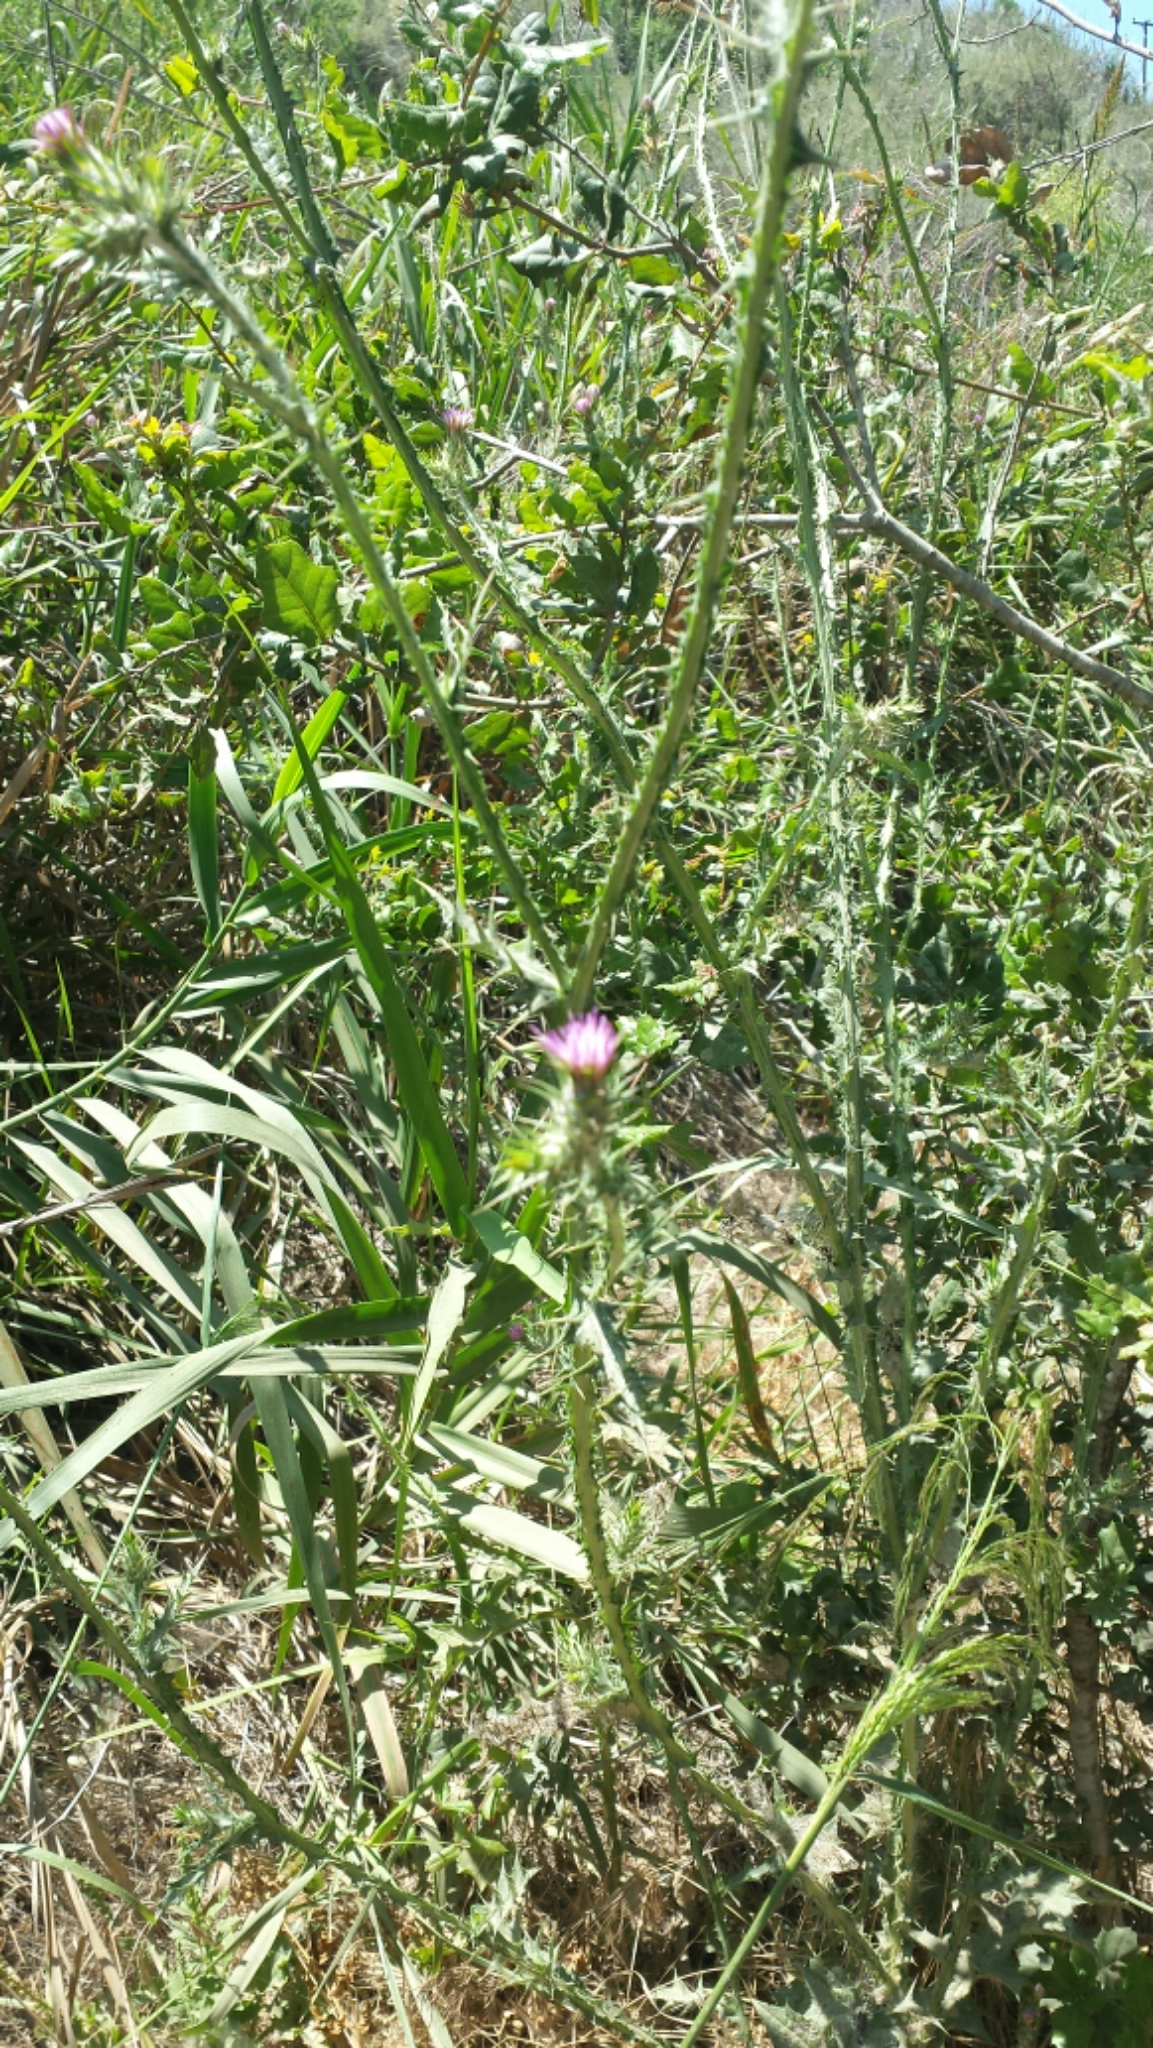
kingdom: Plantae
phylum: Tracheophyta
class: Magnoliopsida
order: Asterales
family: Asteraceae
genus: Carduus
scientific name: Carduus pycnocephalus
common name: Plymouth thistle
